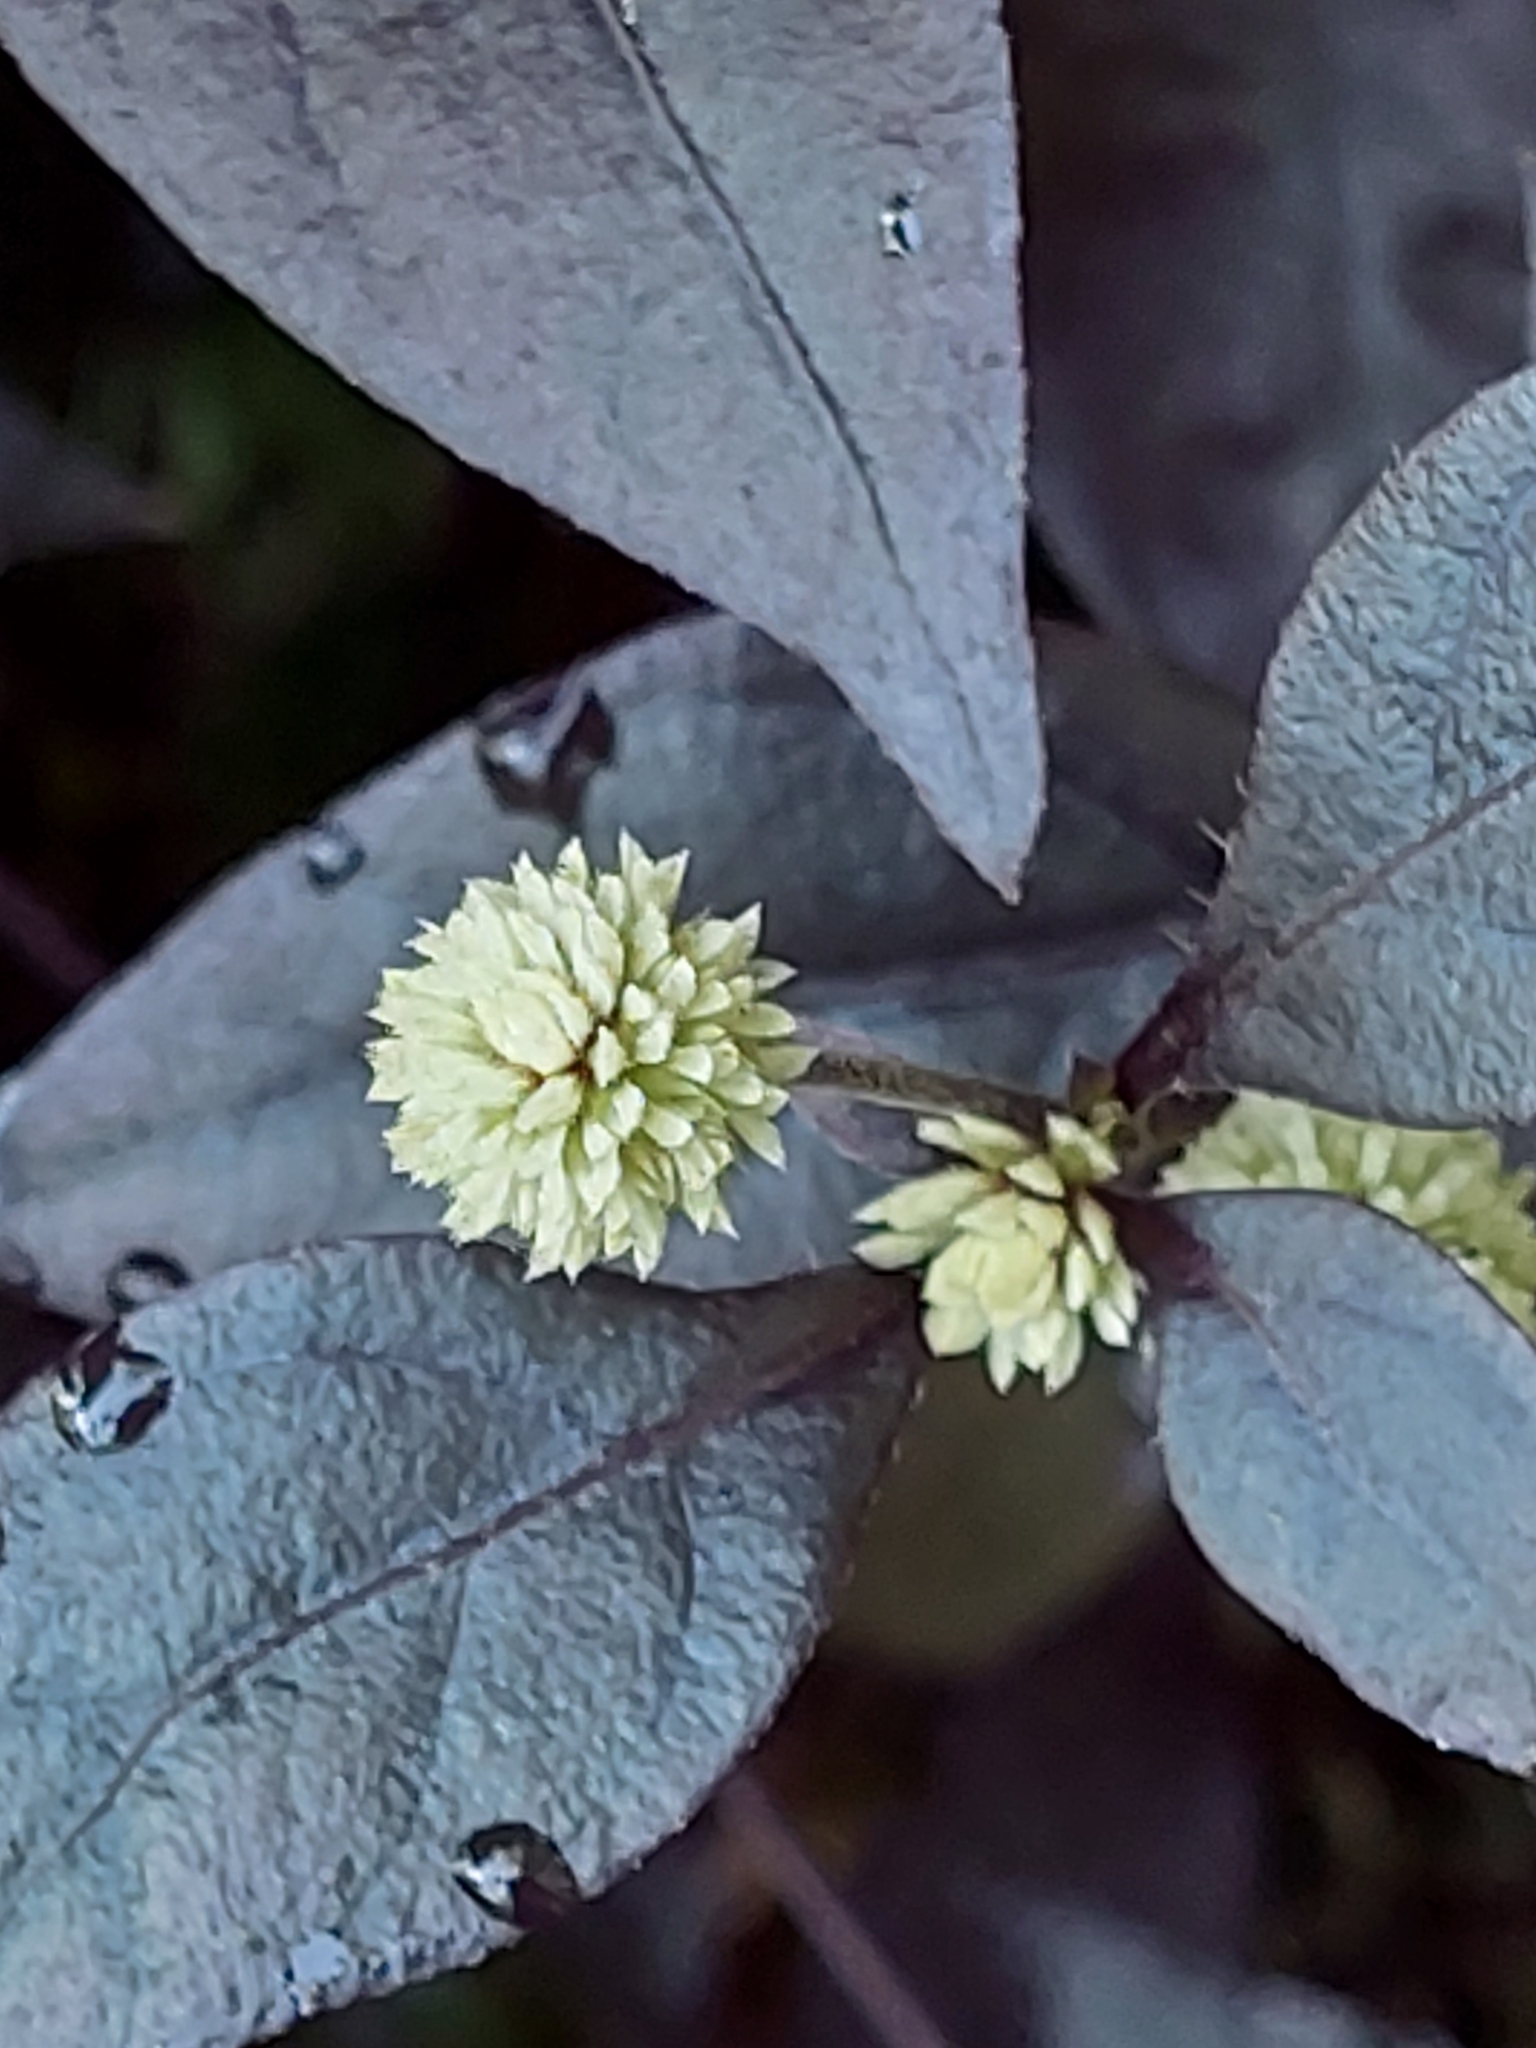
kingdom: Plantae
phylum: Tracheophyta
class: Magnoliopsida
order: Caryophyllales
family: Amaranthaceae
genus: Alternanthera
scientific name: Alternanthera brasiliana
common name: Brazilian joyweed
